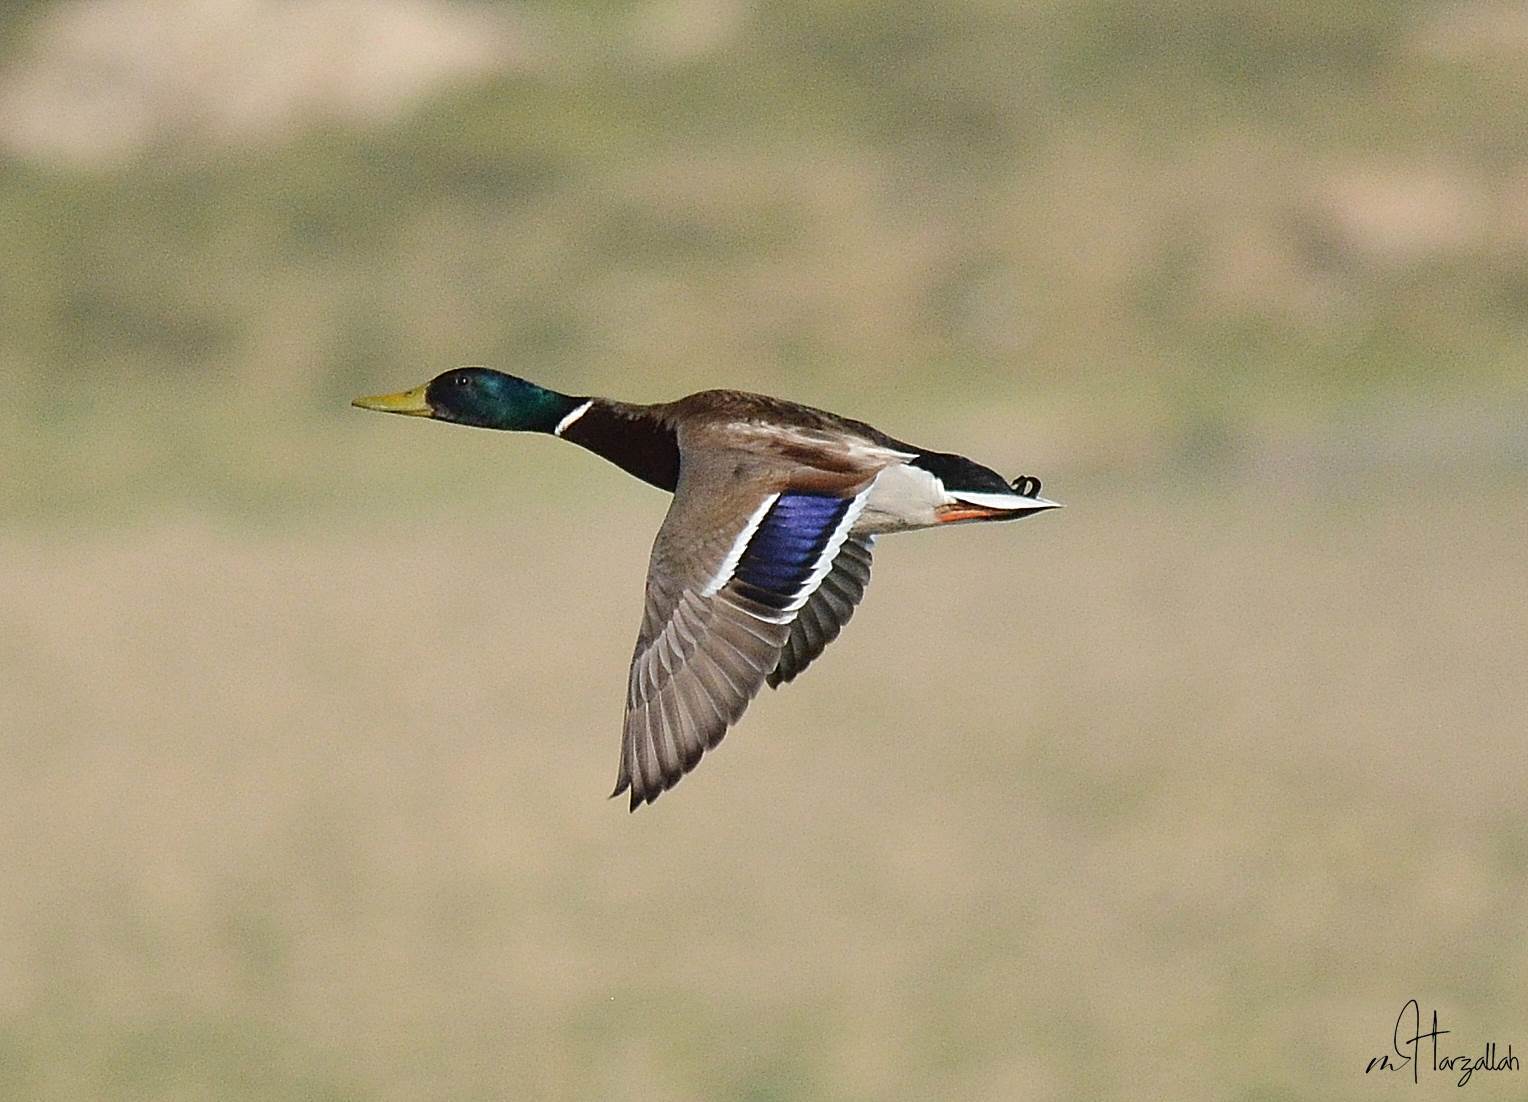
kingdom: Animalia
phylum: Chordata
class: Aves
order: Anseriformes
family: Anatidae
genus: Anas
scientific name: Anas platyrhynchos
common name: Mallard
